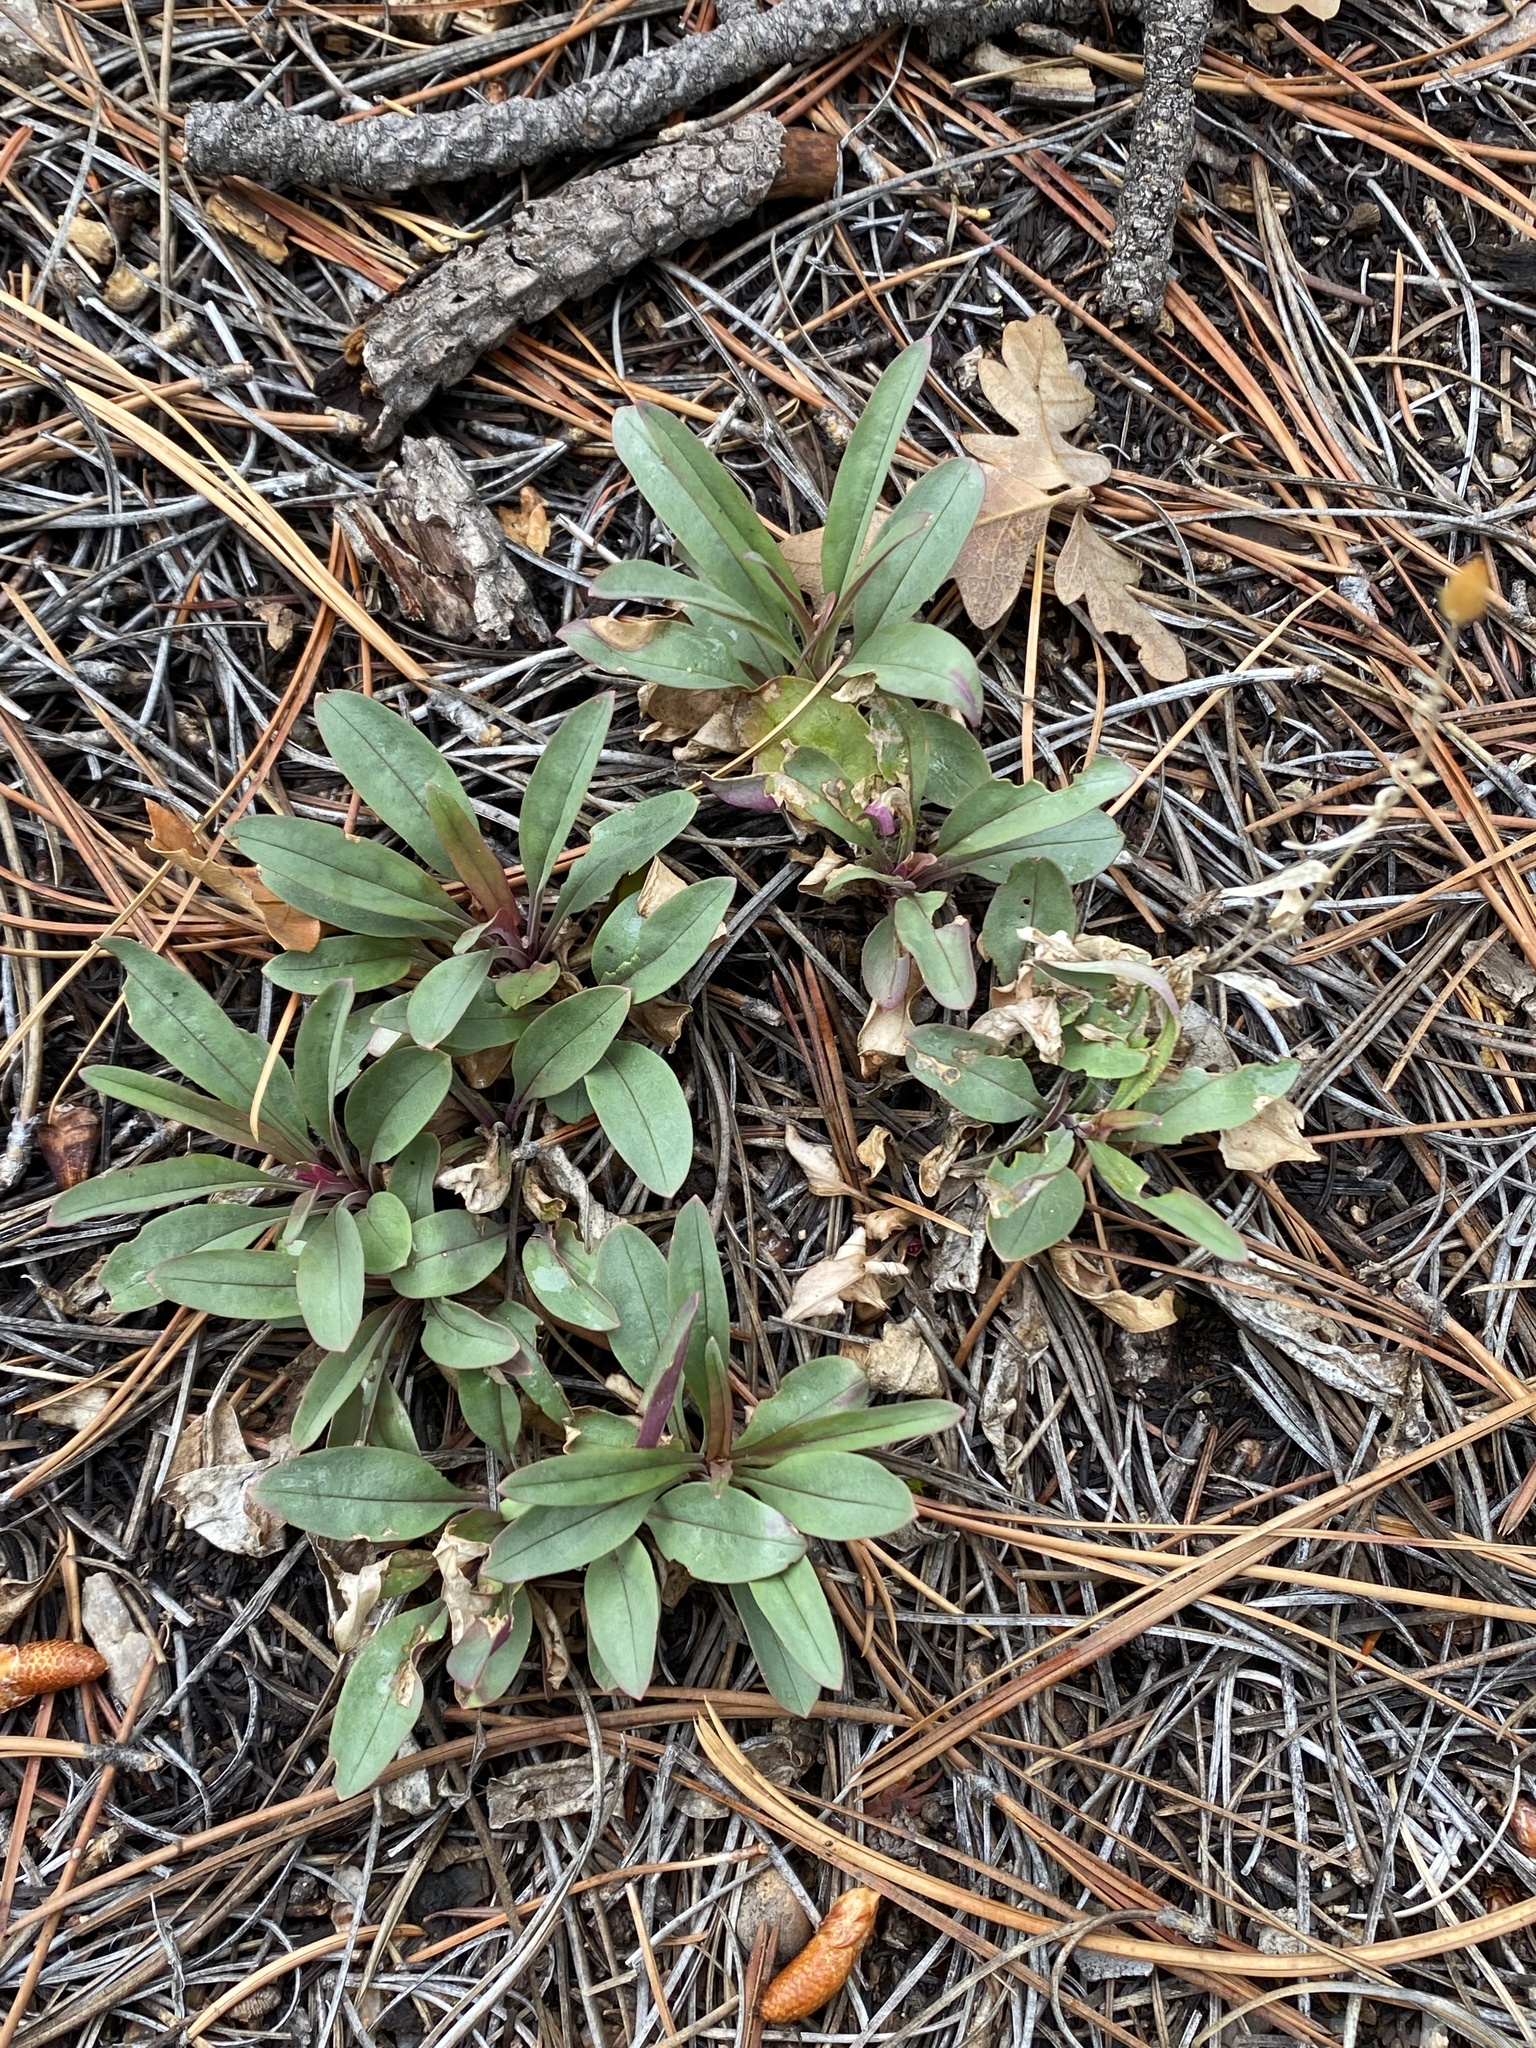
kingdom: Plantae
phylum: Tracheophyta
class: Magnoliopsida
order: Lamiales
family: Plantaginaceae
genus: Penstemon
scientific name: Penstemon oliganthus
